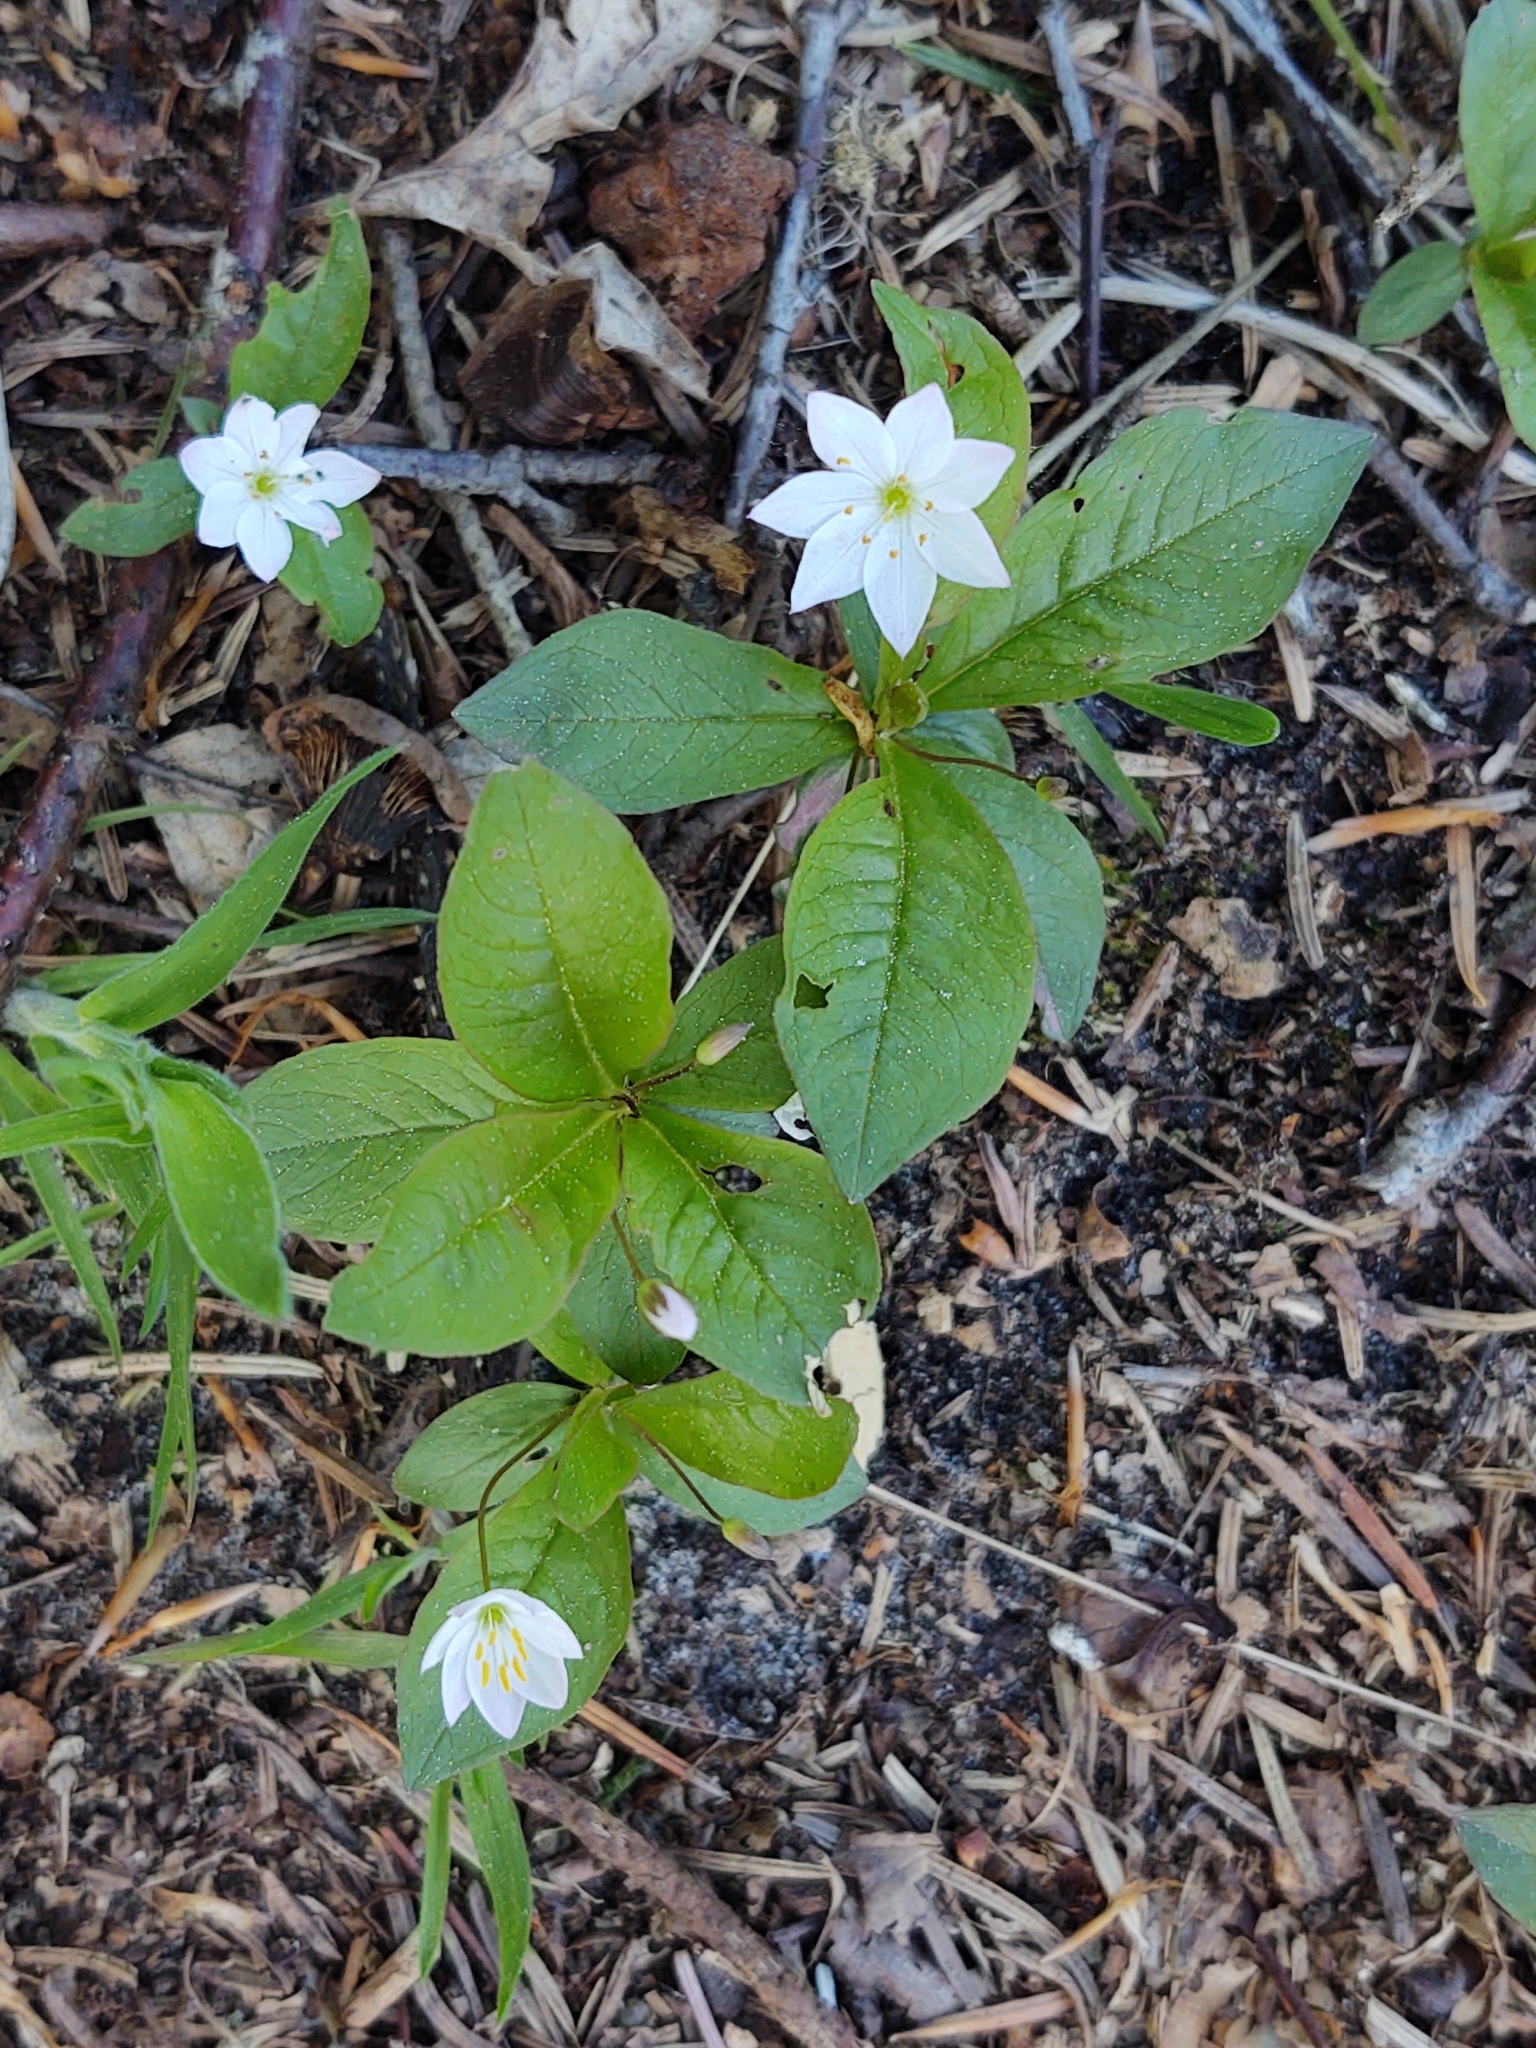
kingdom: Plantae
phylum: Tracheophyta
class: Magnoliopsida
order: Ericales
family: Primulaceae
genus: Lysimachia
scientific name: Lysimachia europaea
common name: Arctic starflower
